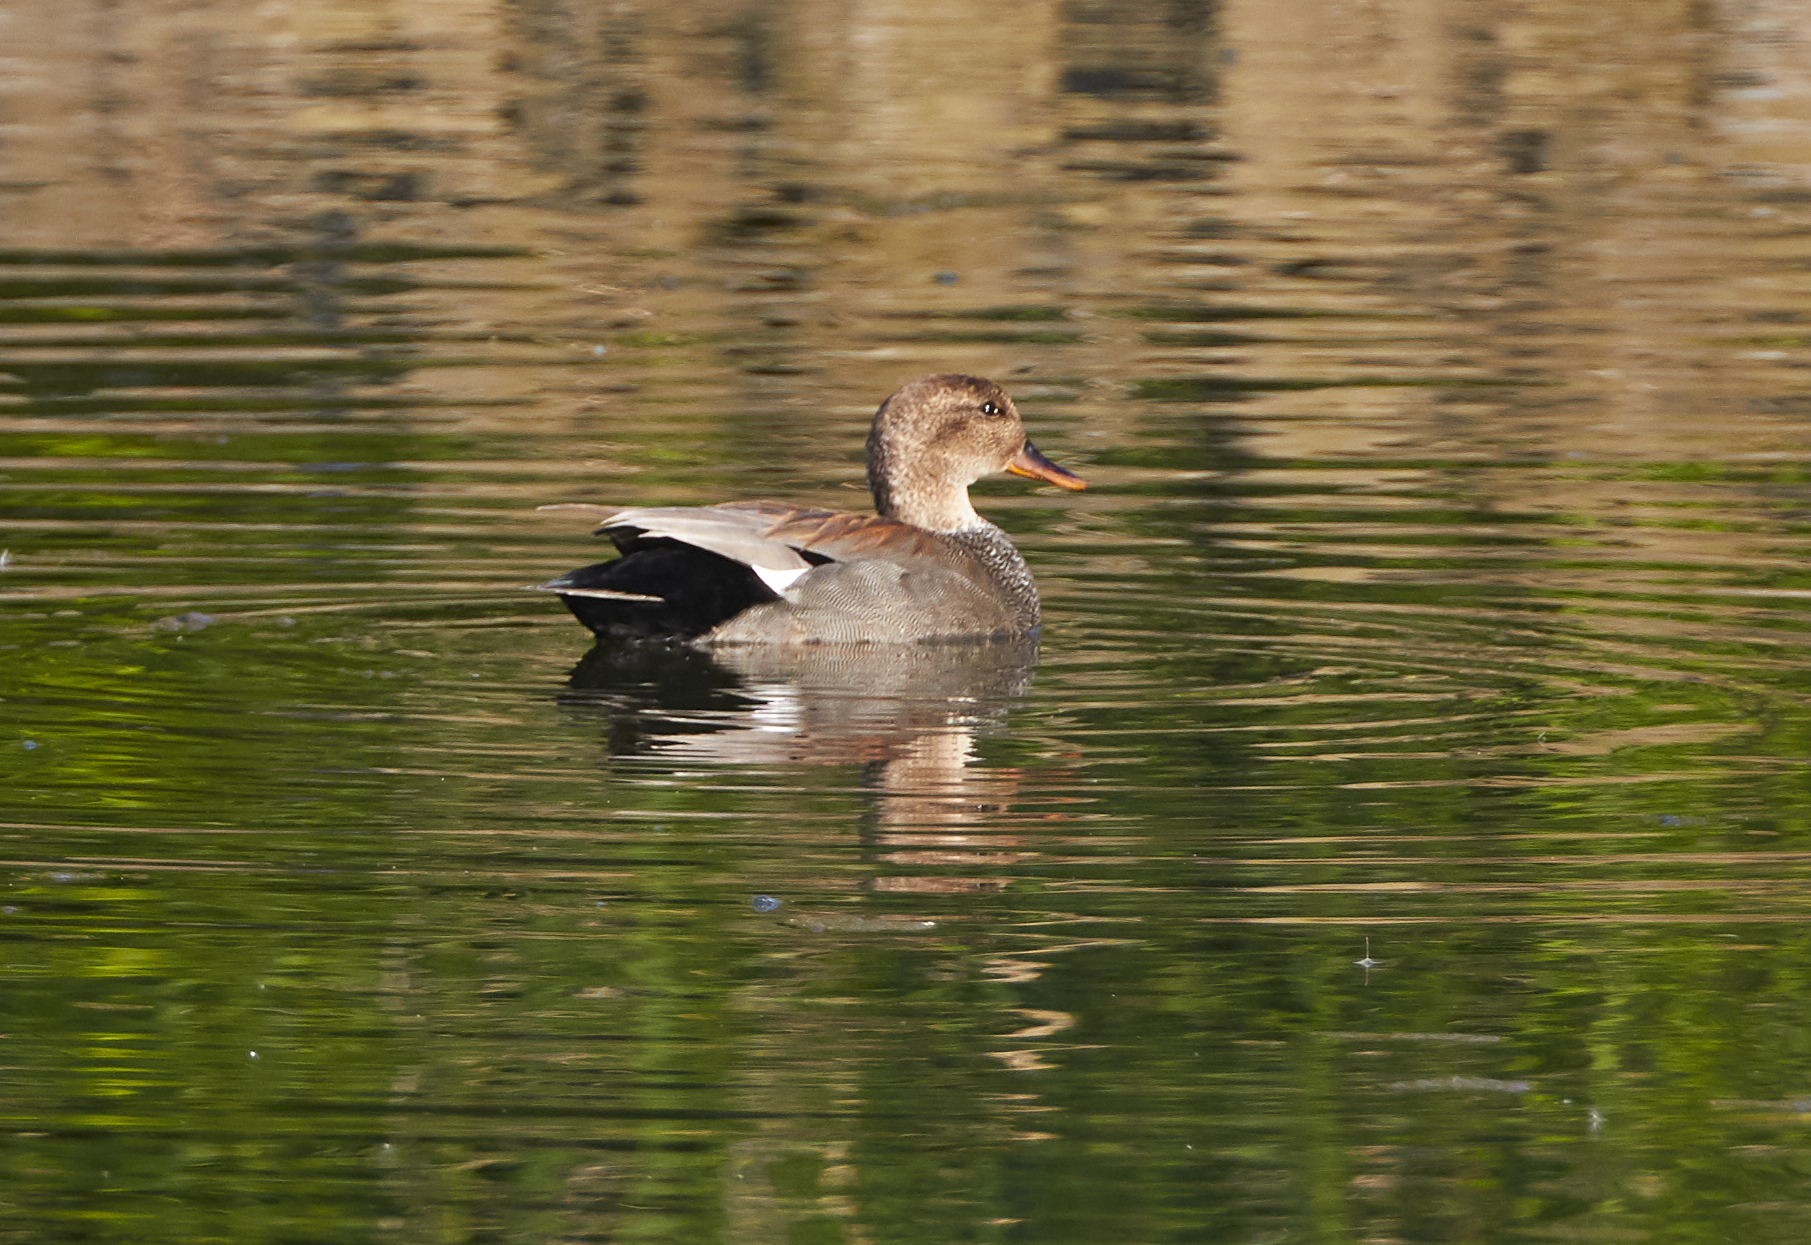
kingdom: Animalia
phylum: Chordata
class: Aves
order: Anseriformes
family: Anatidae
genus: Mareca
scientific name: Mareca strepera
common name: Gadwall
